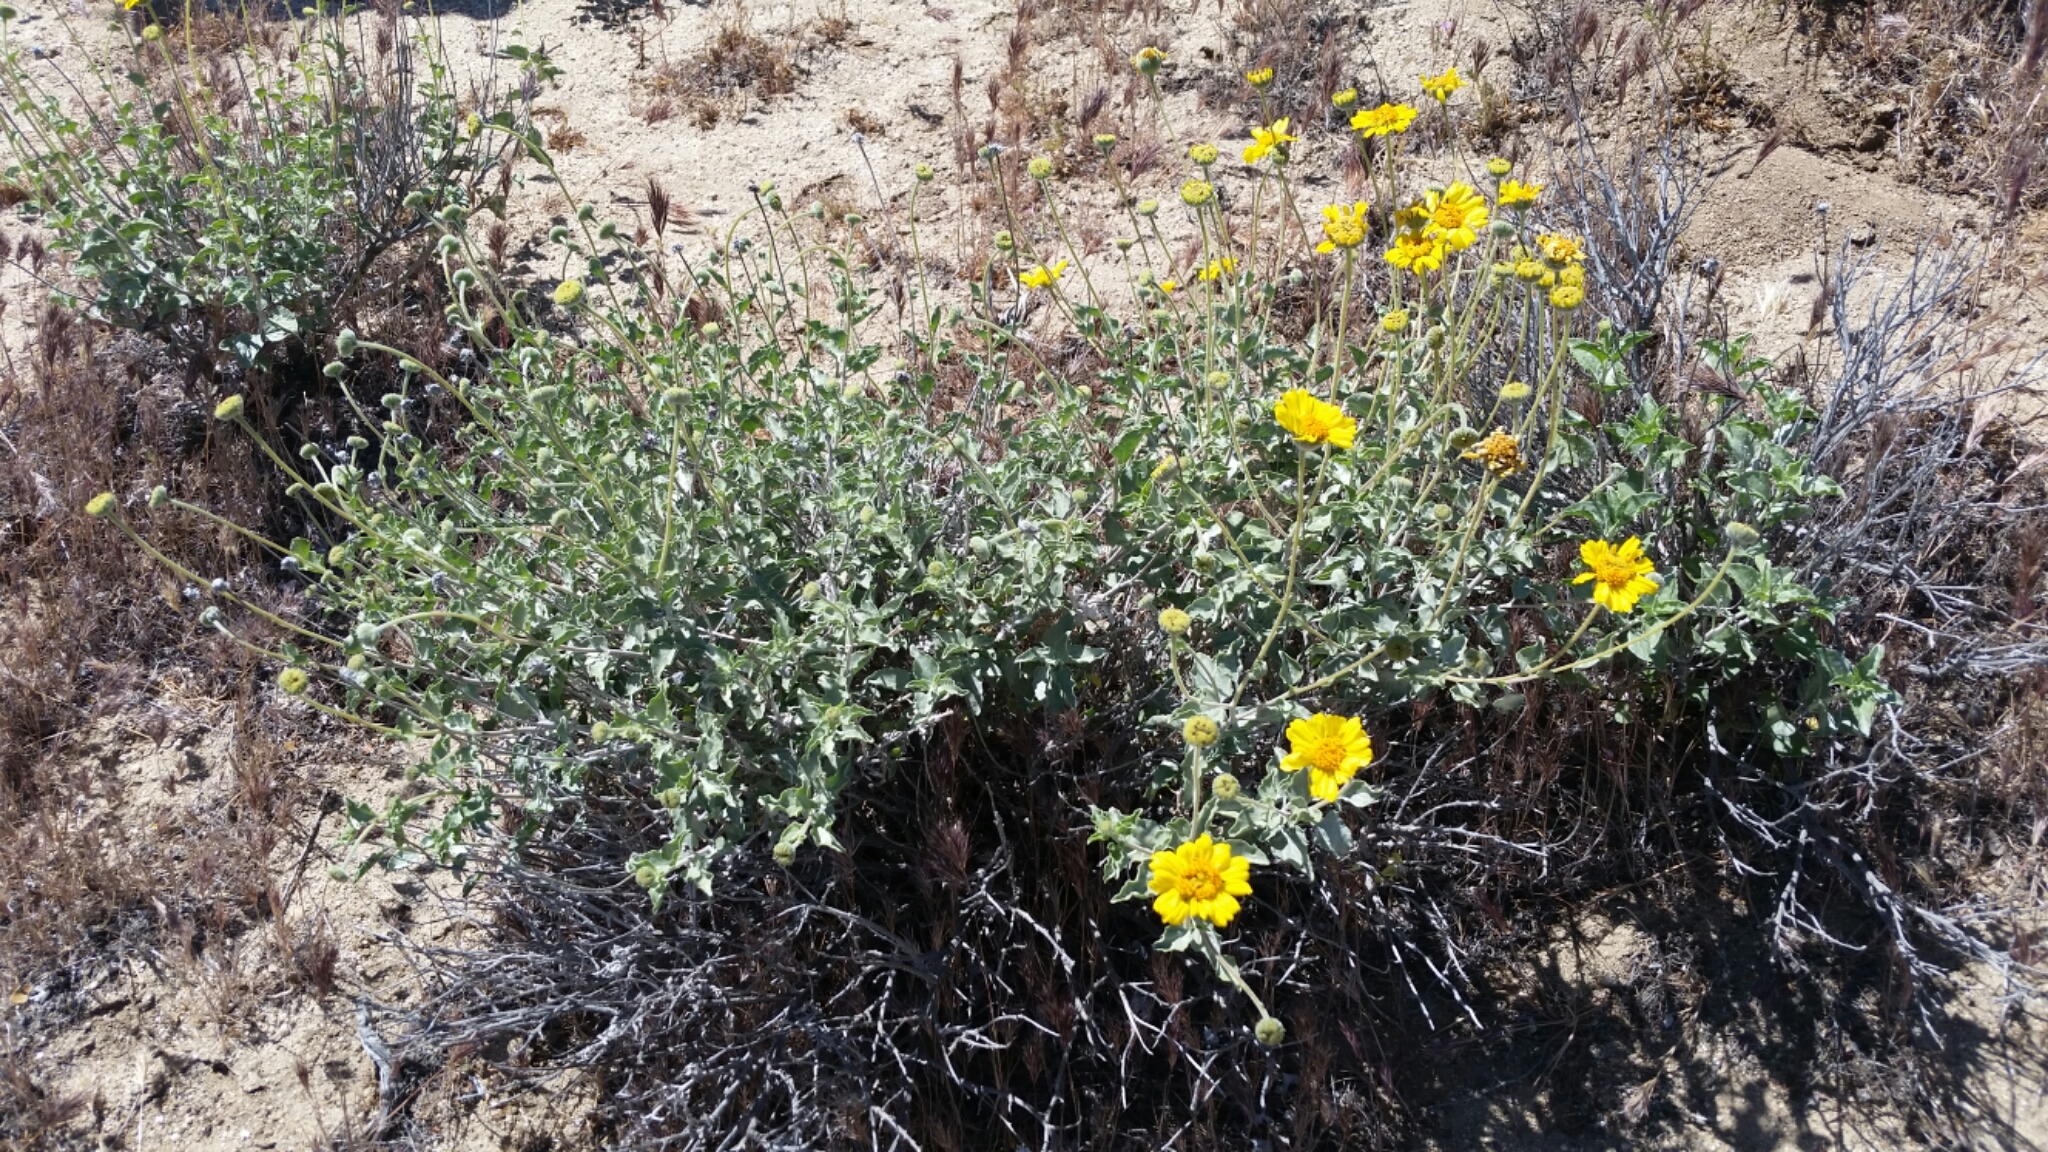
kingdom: Plantae
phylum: Tracheophyta
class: Magnoliopsida
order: Asterales
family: Asteraceae
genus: Encelia
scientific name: Encelia actoni
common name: Acton encelia
